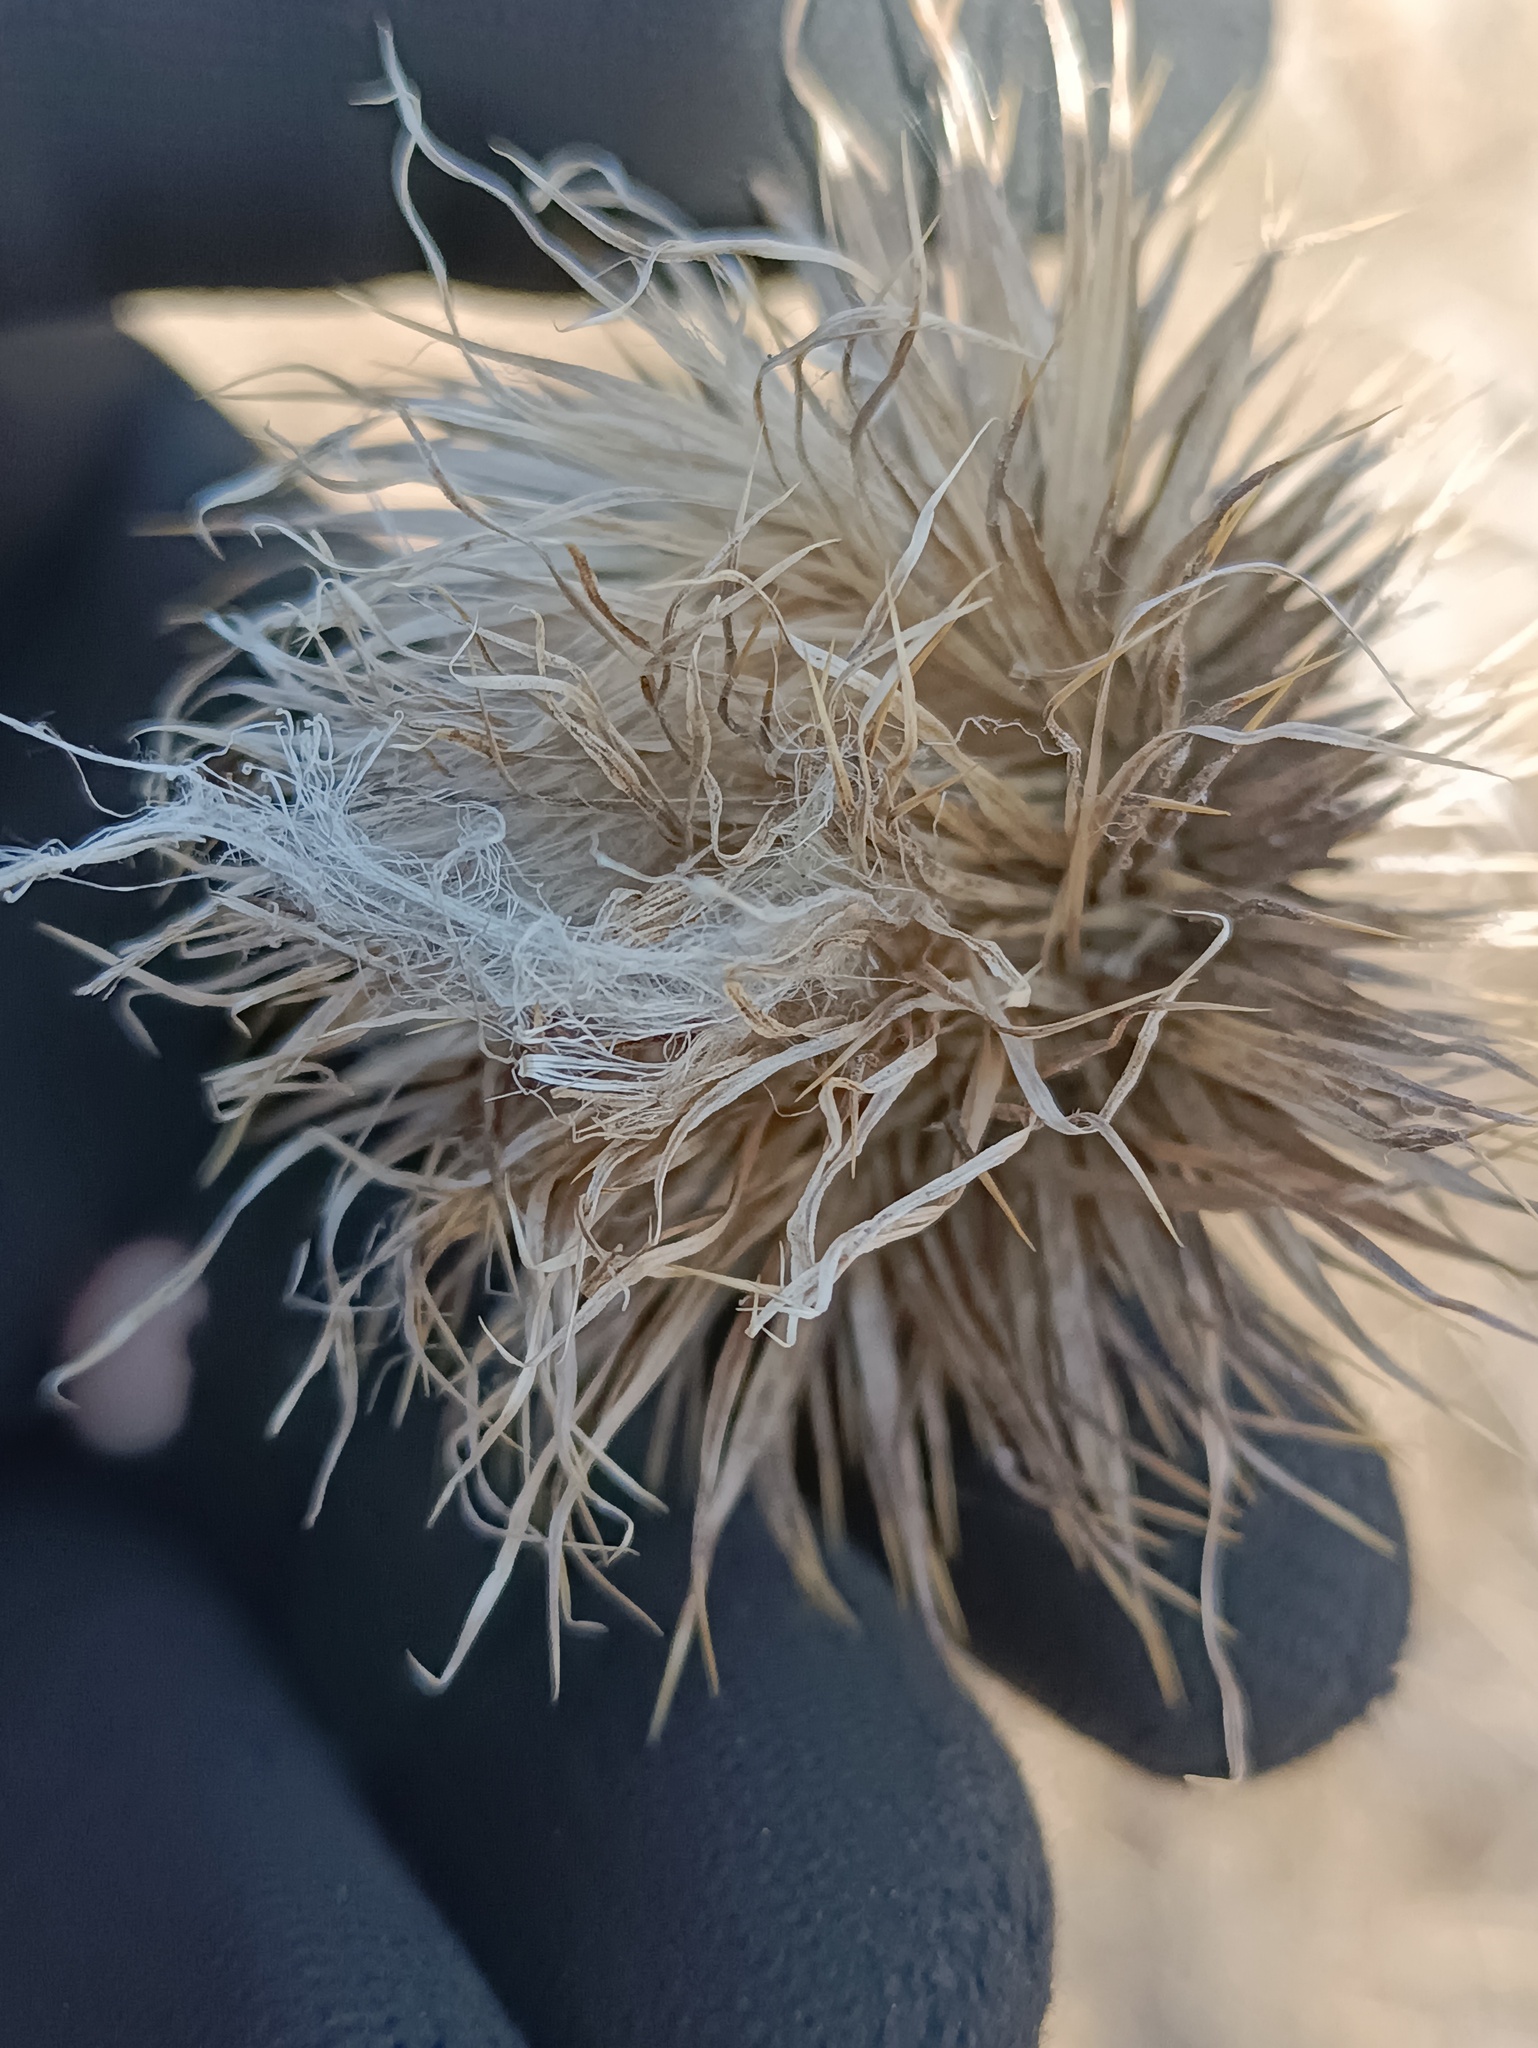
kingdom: Plantae
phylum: Tracheophyta
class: Magnoliopsida
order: Asterales
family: Asteraceae
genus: Cirsium
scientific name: Cirsium vulgare
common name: Bull thistle
